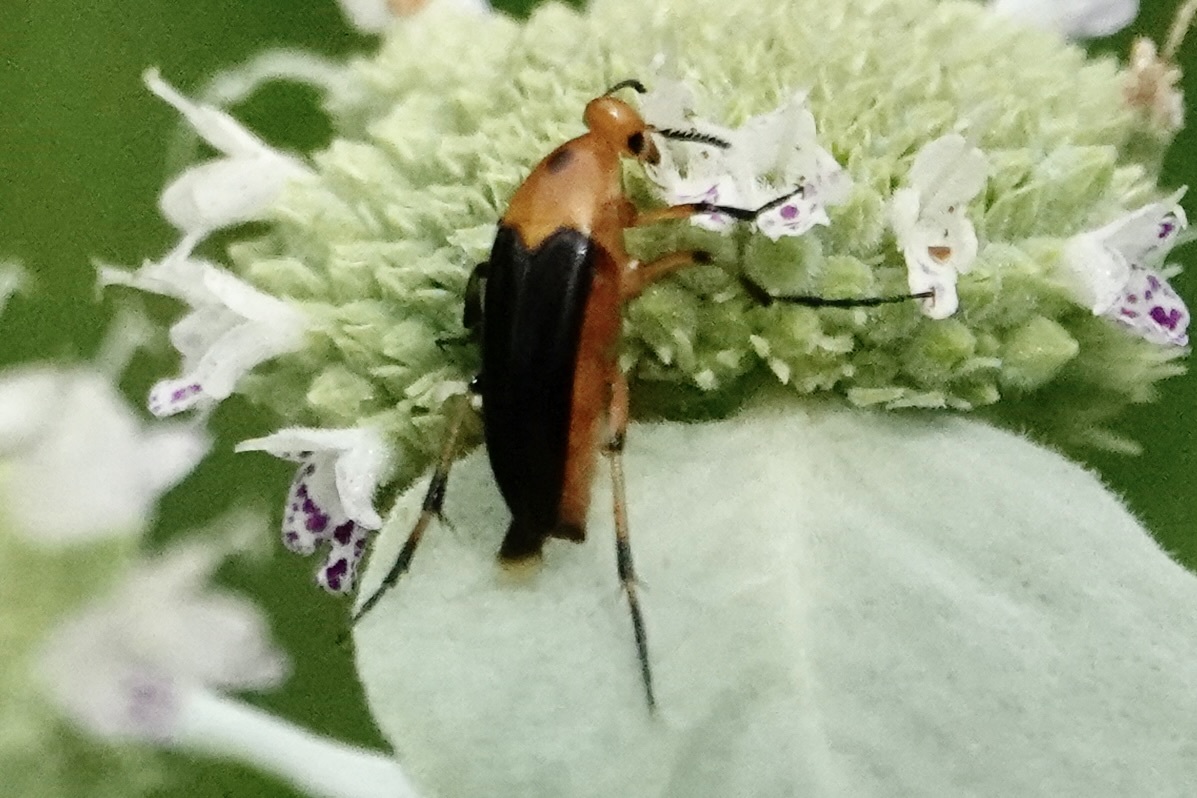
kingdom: Animalia
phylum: Arthropoda
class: Insecta
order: Coleoptera
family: Ripiphoridae
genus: Macrosiagon
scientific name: Macrosiagon limbatum
